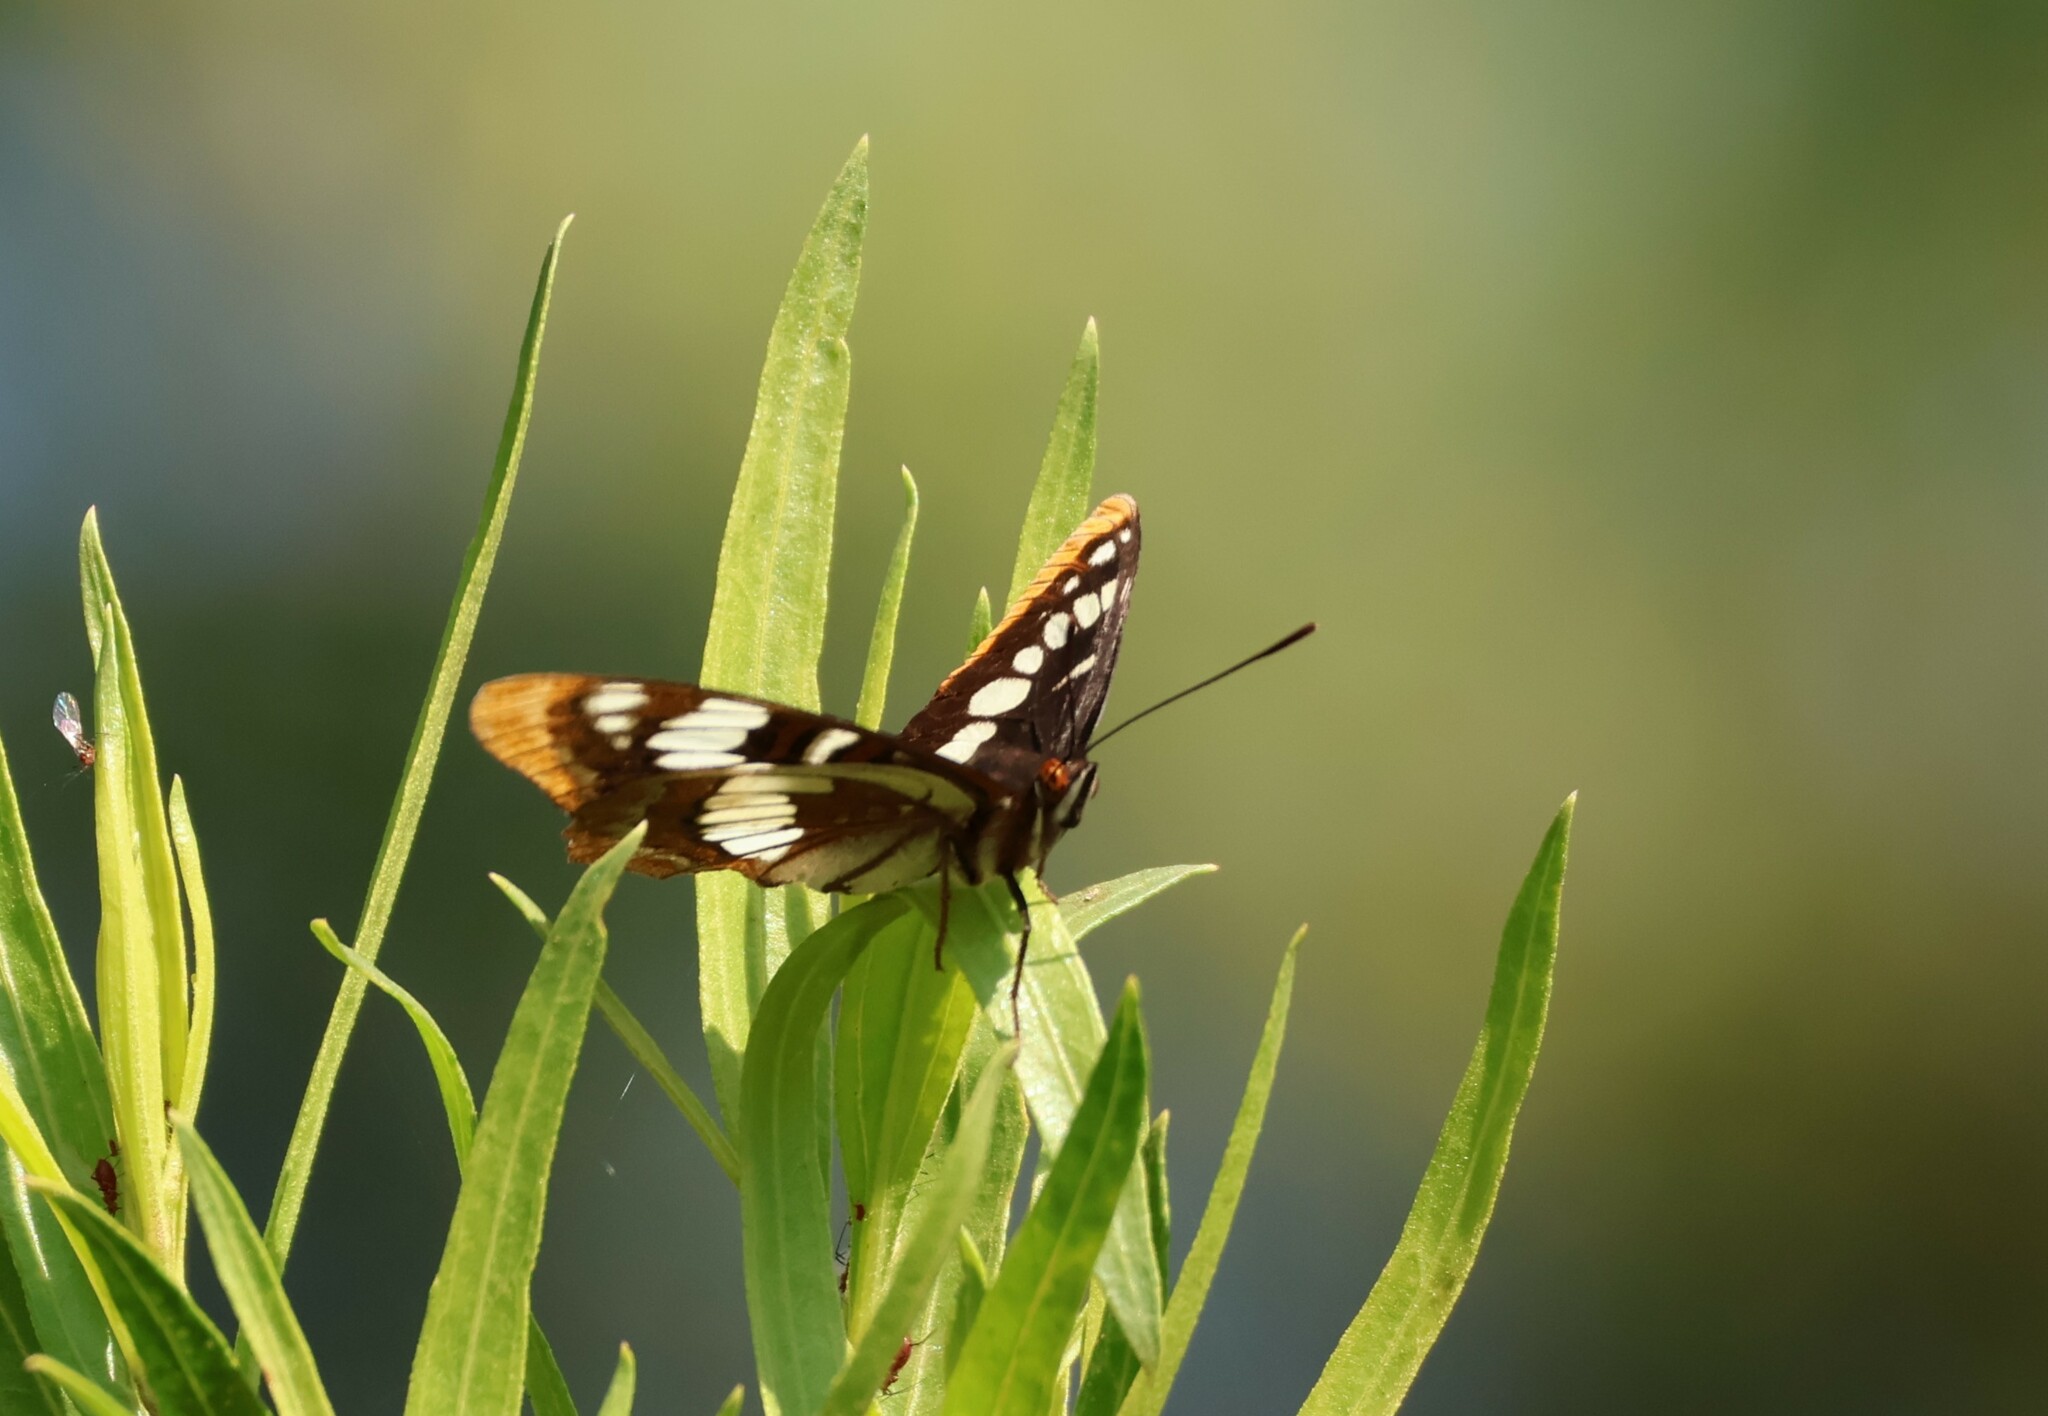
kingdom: Animalia
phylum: Arthropoda
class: Insecta
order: Lepidoptera
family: Nymphalidae
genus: Limenitis
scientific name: Limenitis lorquini
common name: Lorquin's admiral
